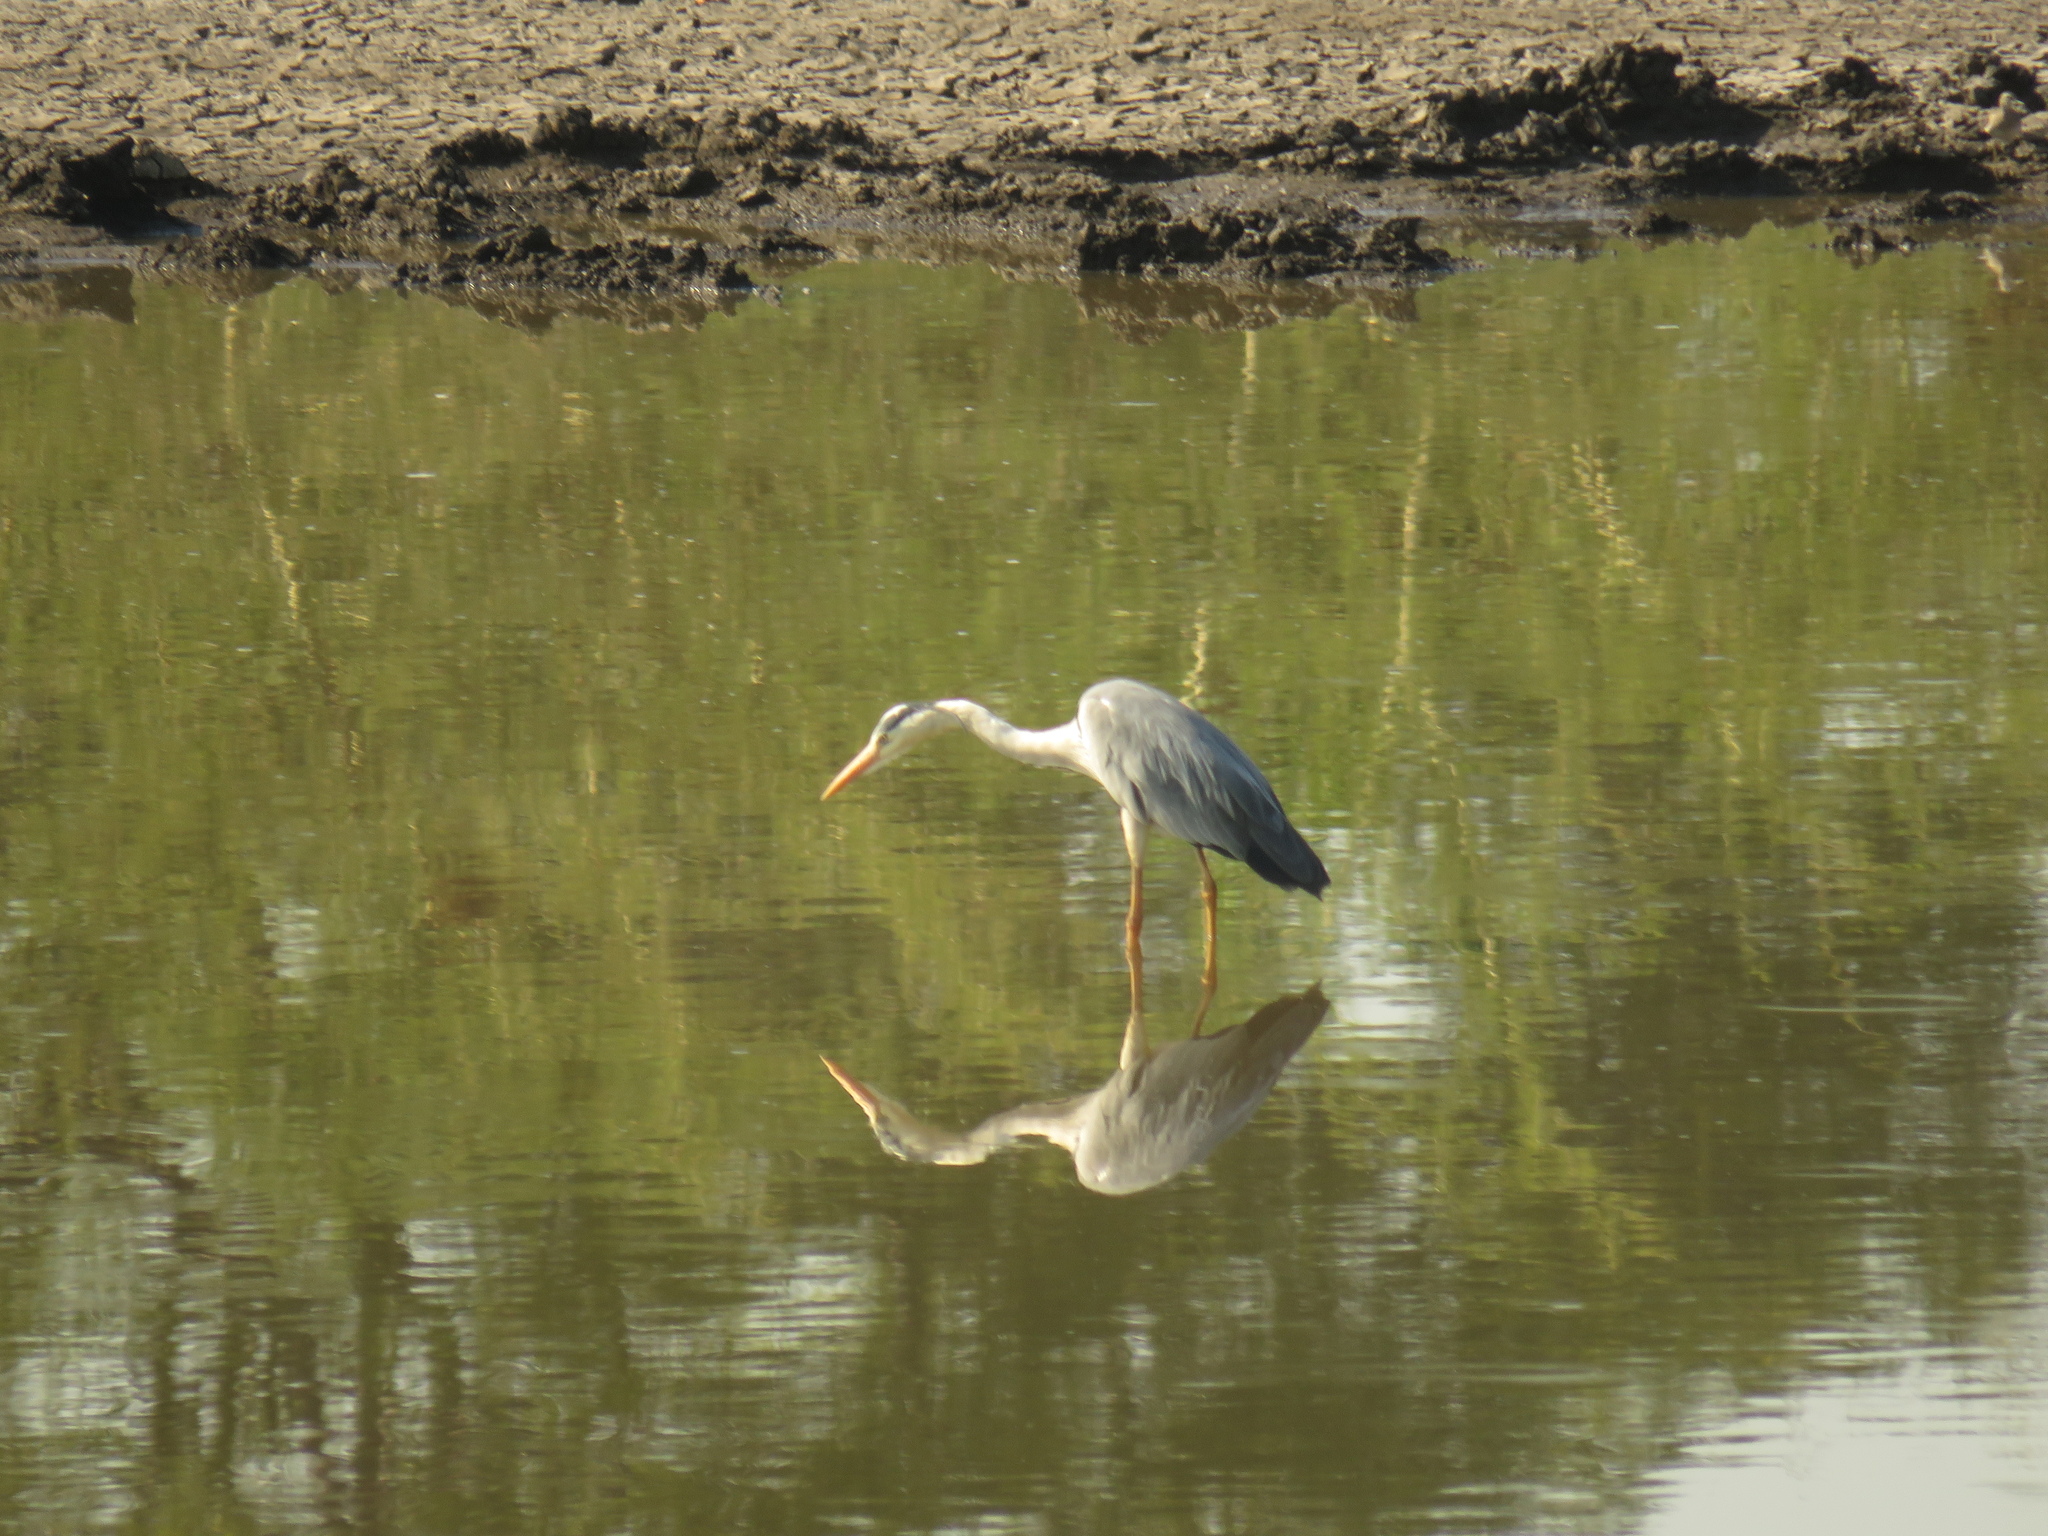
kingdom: Animalia
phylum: Chordata
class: Aves
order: Pelecaniformes
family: Ardeidae
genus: Ardea
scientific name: Ardea cinerea
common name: Grey heron
